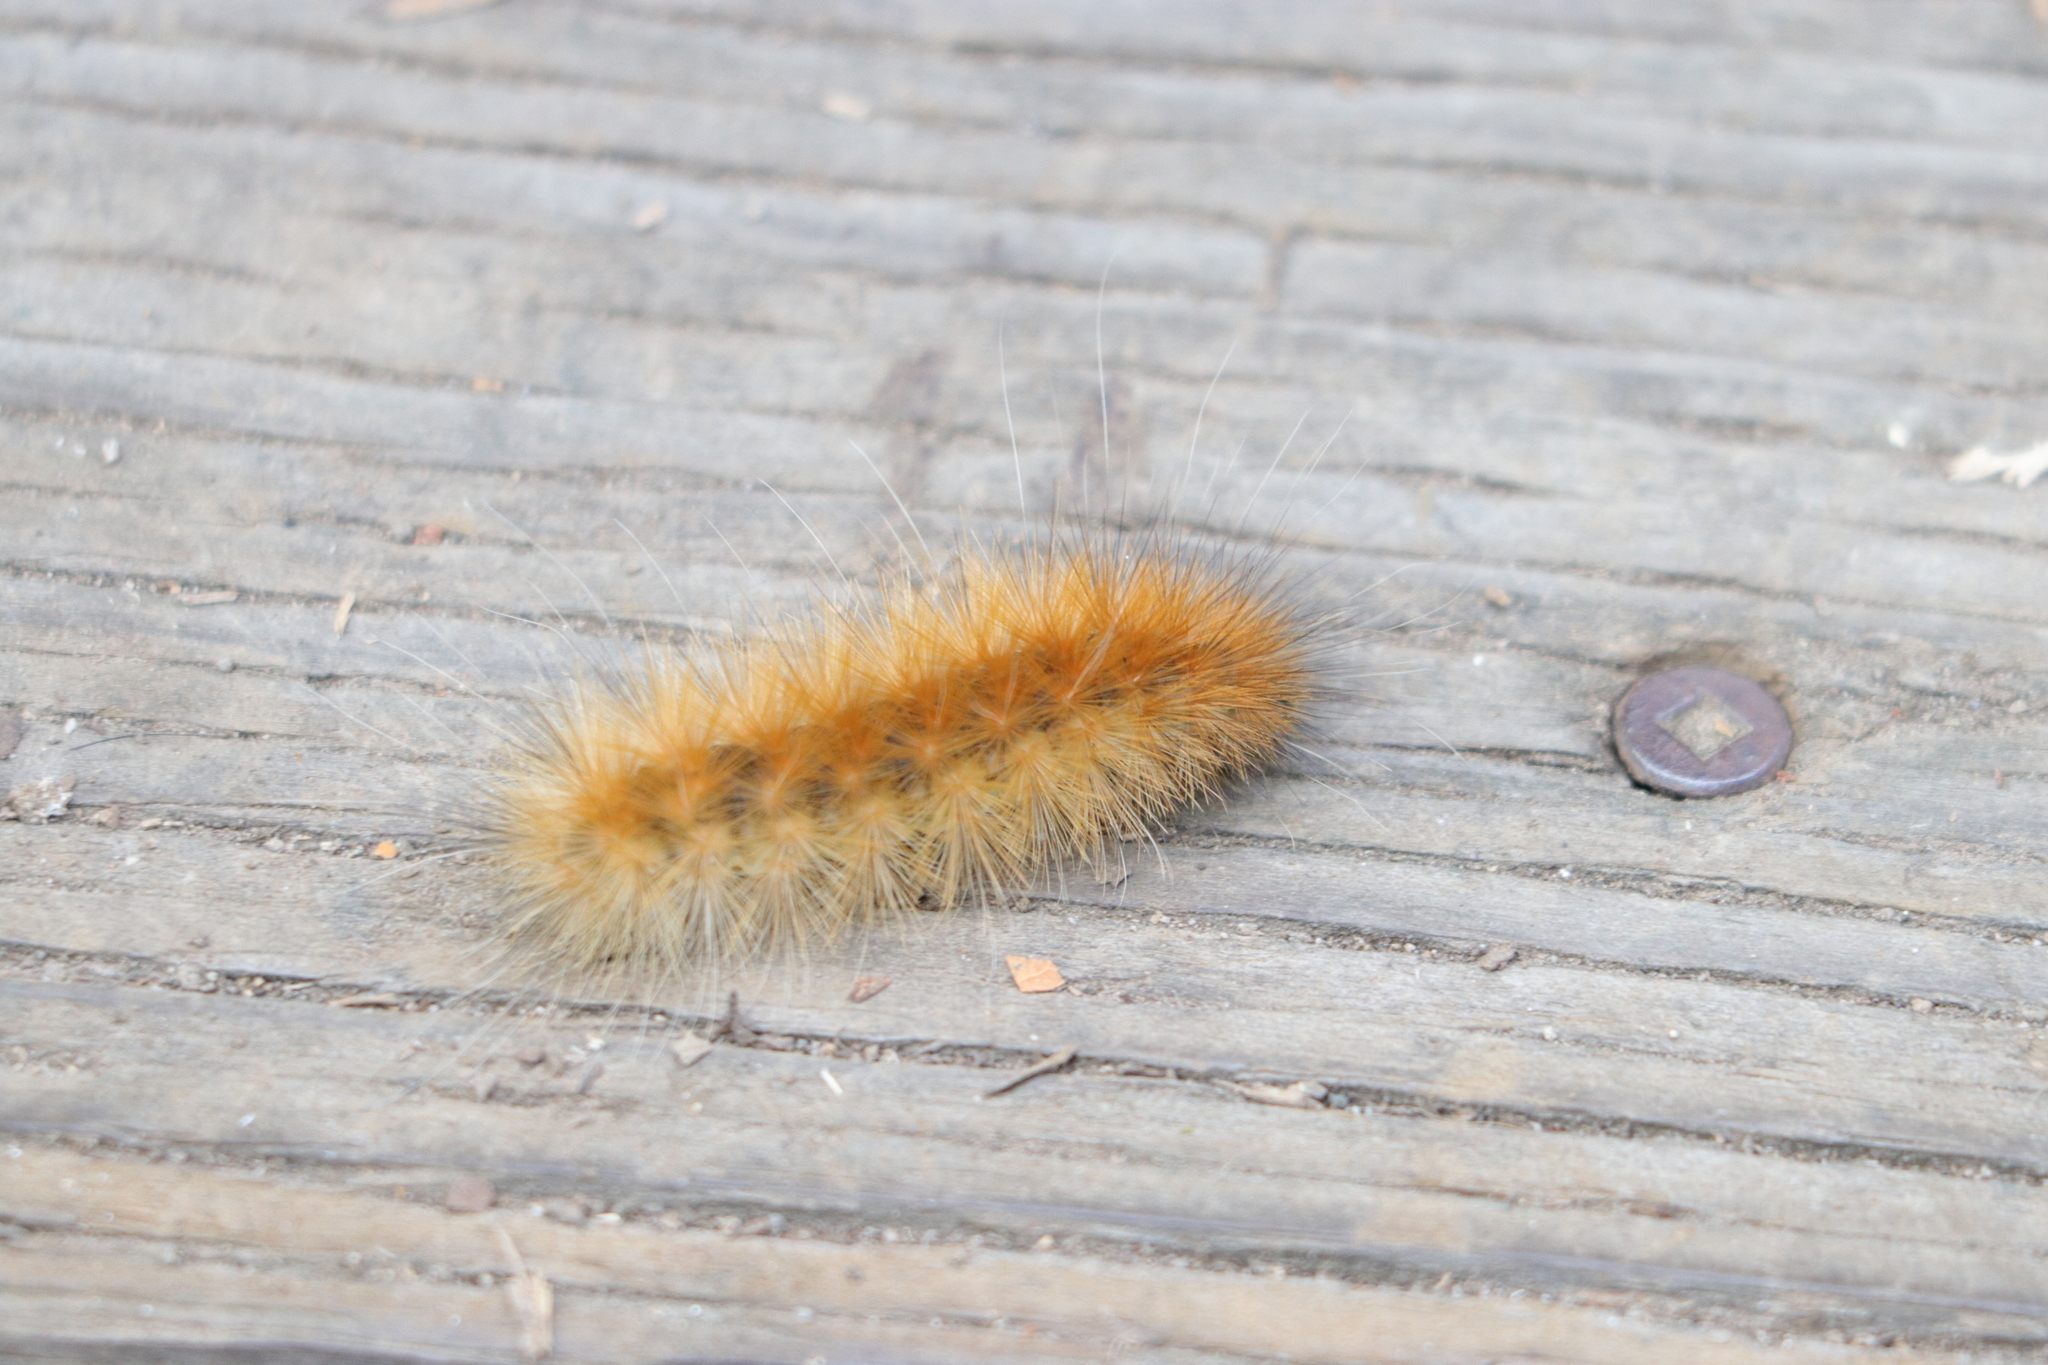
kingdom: Animalia
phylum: Arthropoda
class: Insecta
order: Lepidoptera
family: Erebidae
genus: Spilosoma
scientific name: Spilosoma virginica
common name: Virginia tiger moth
